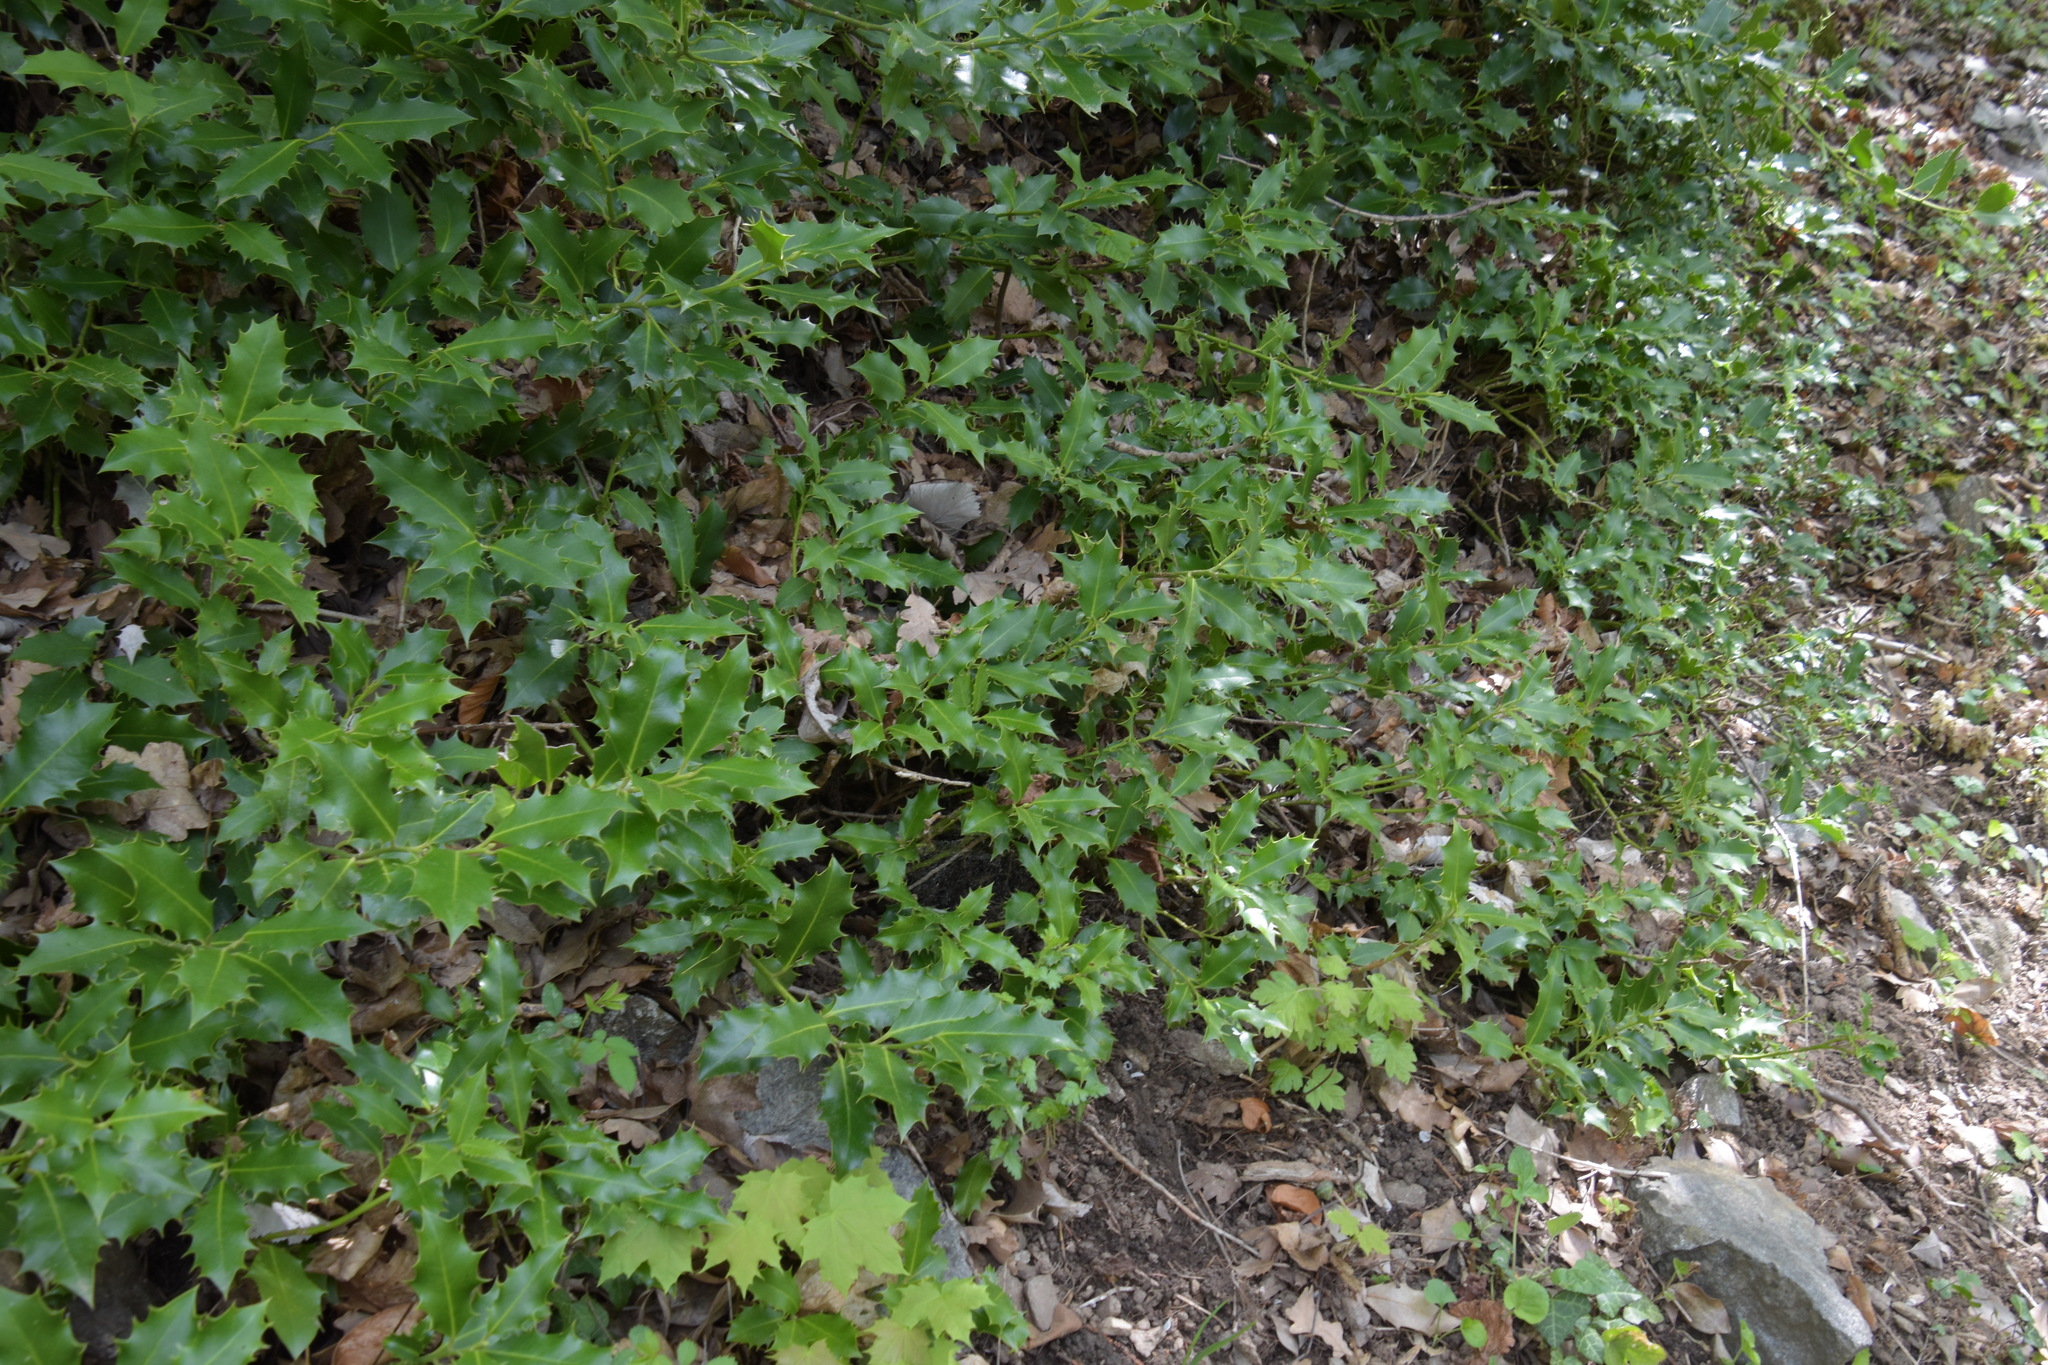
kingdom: Plantae
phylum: Tracheophyta
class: Magnoliopsida
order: Aquifoliales
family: Aquifoliaceae
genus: Ilex
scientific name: Ilex aquifolium
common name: English holly
